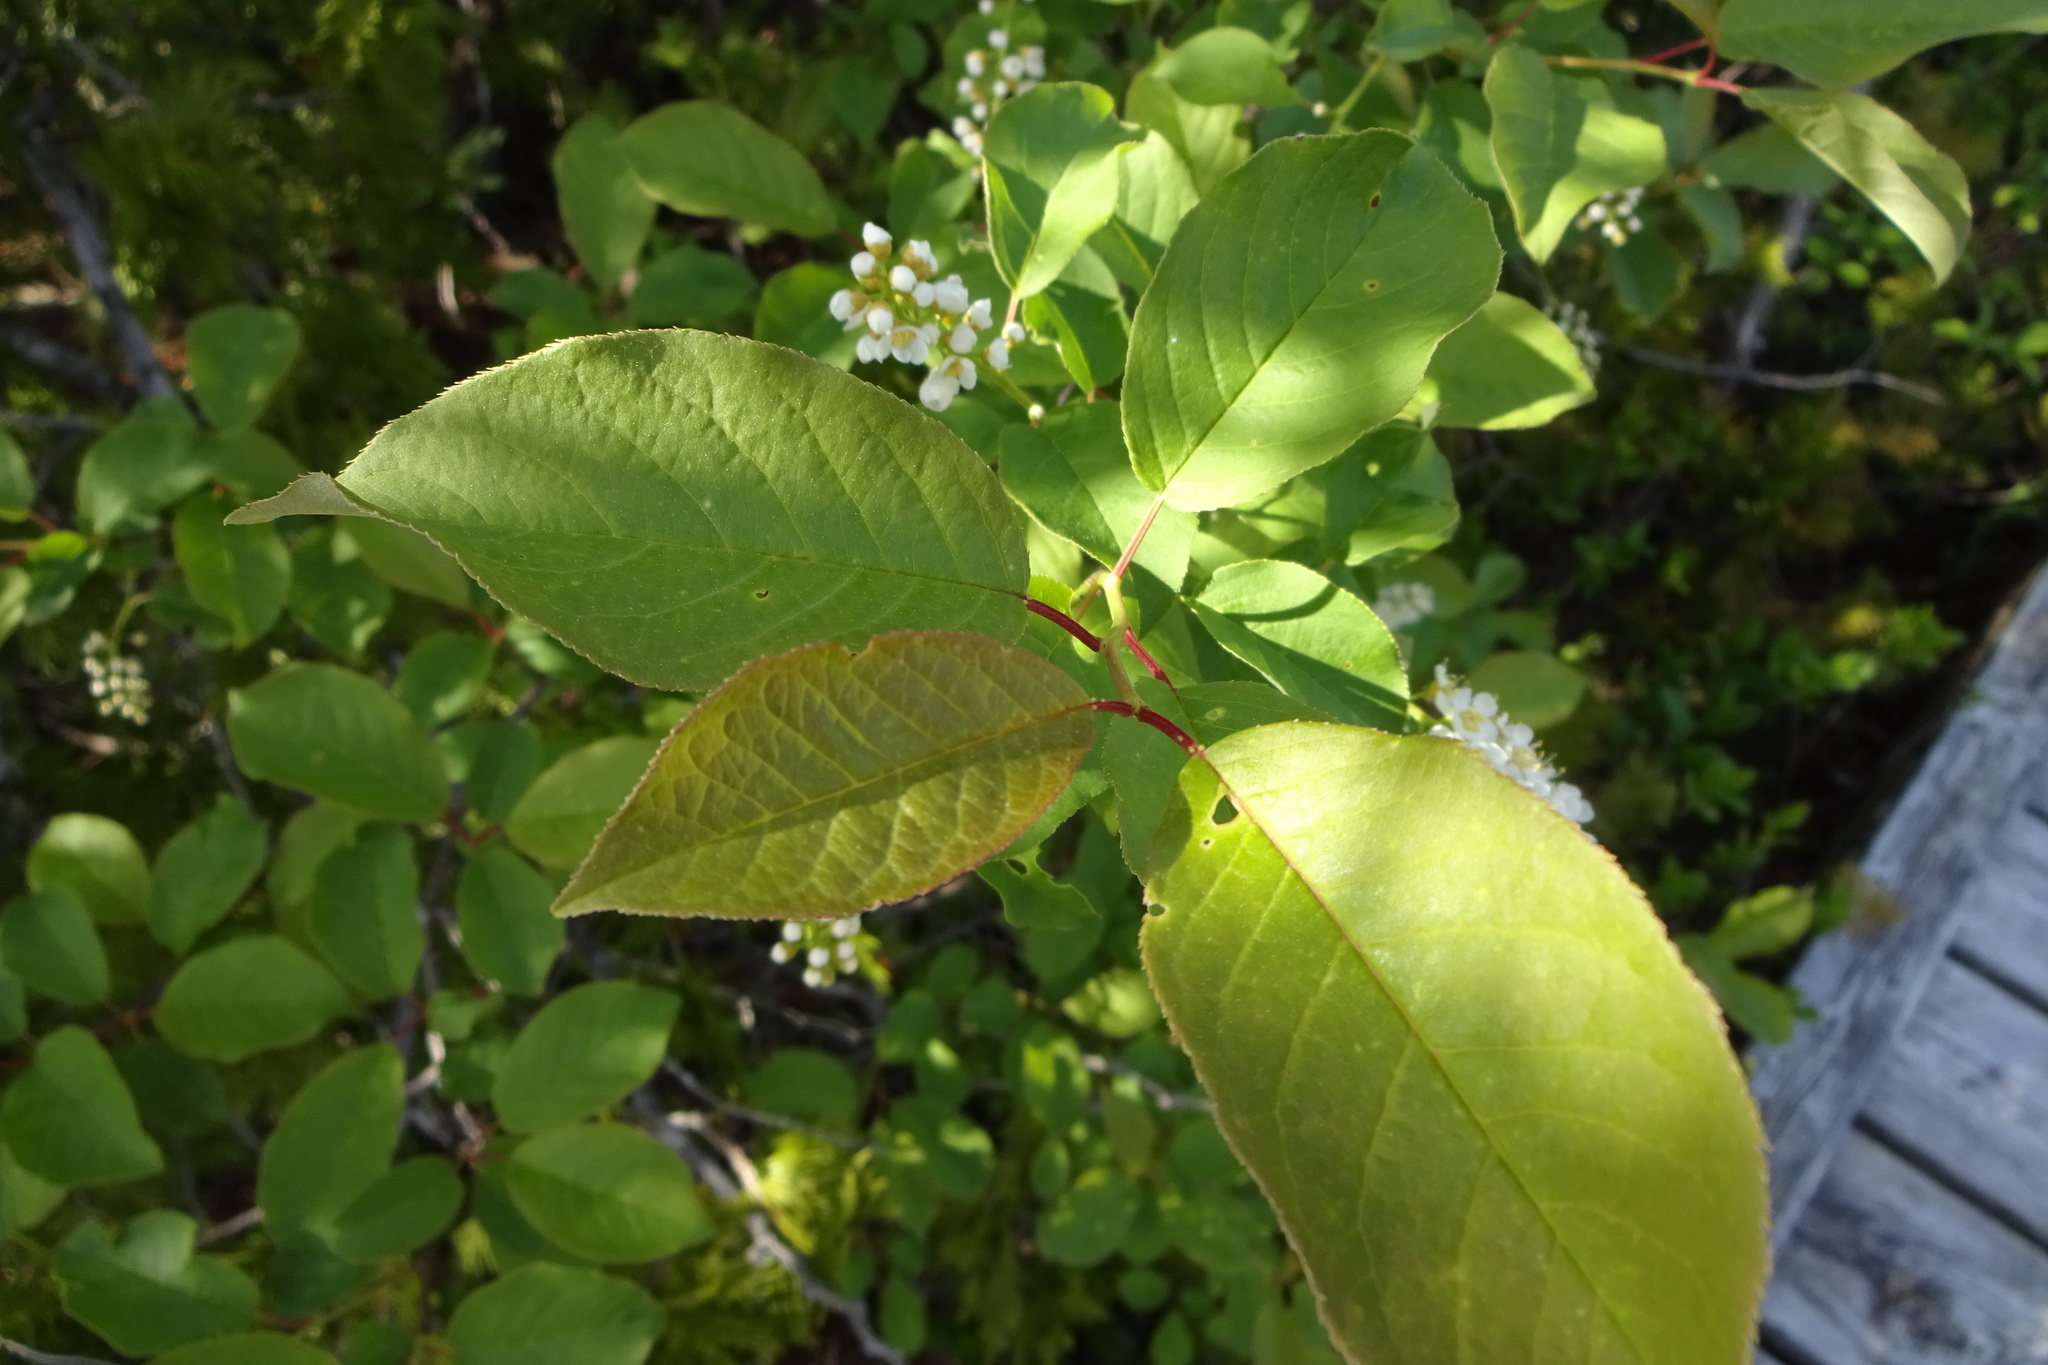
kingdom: Plantae
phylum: Tracheophyta
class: Magnoliopsida
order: Rosales
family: Rosaceae
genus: Prunus
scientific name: Prunus virginiana
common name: Chokecherry
